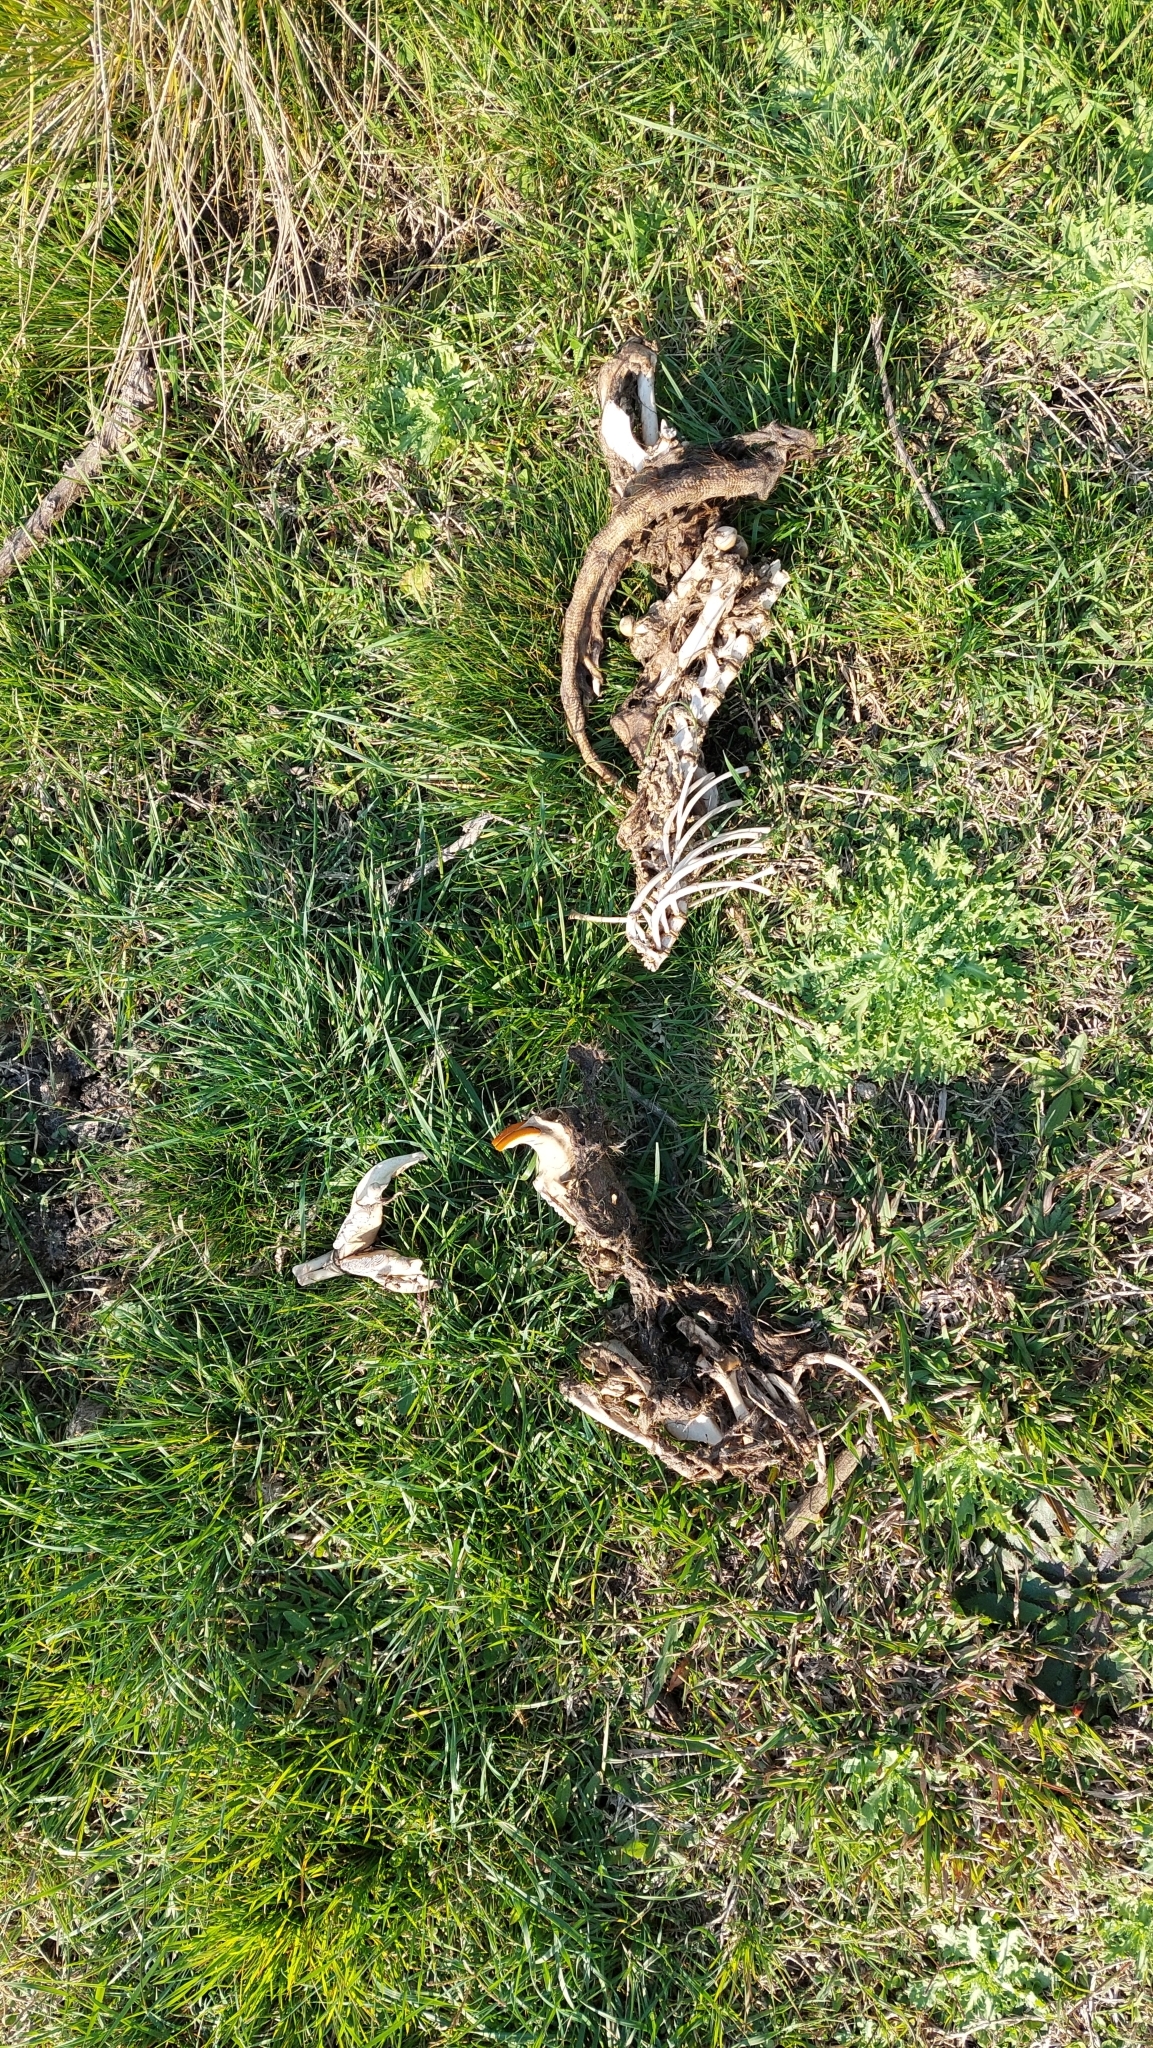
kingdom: Animalia
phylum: Chordata
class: Mammalia
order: Rodentia
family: Myocastoridae
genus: Myocastor
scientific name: Myocastor coypus
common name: Coypu
